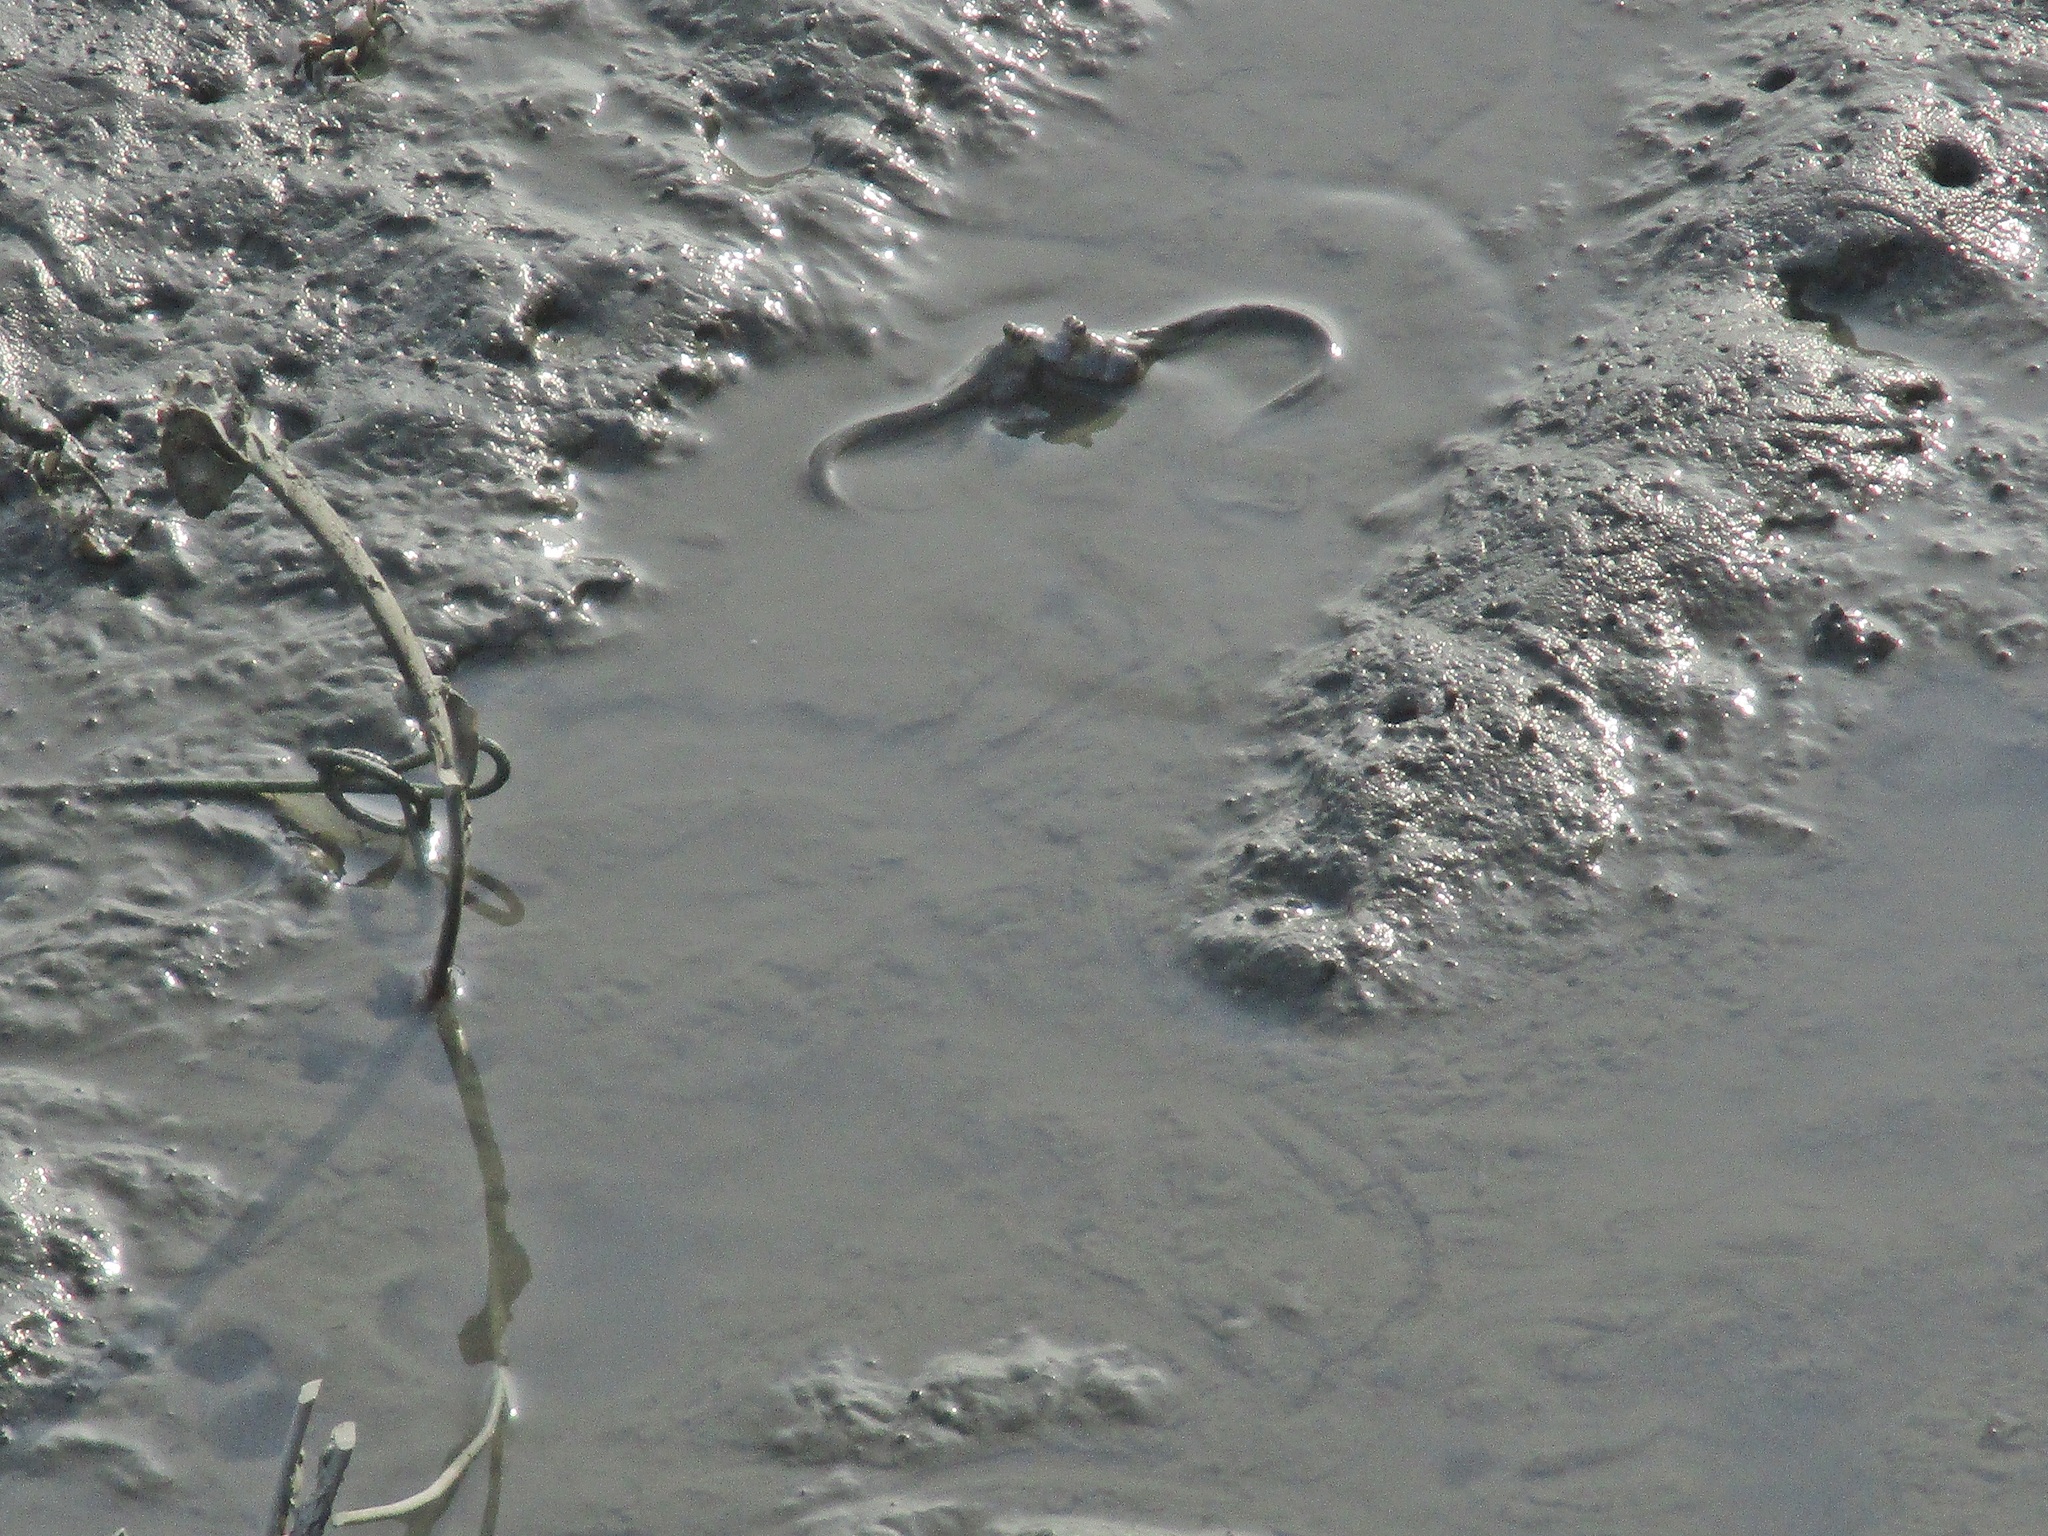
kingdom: Animalia
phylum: Chordata
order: Perciformes
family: Gobiidae
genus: Boleophthalmus
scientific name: Boleophthalmus pectinirostris
